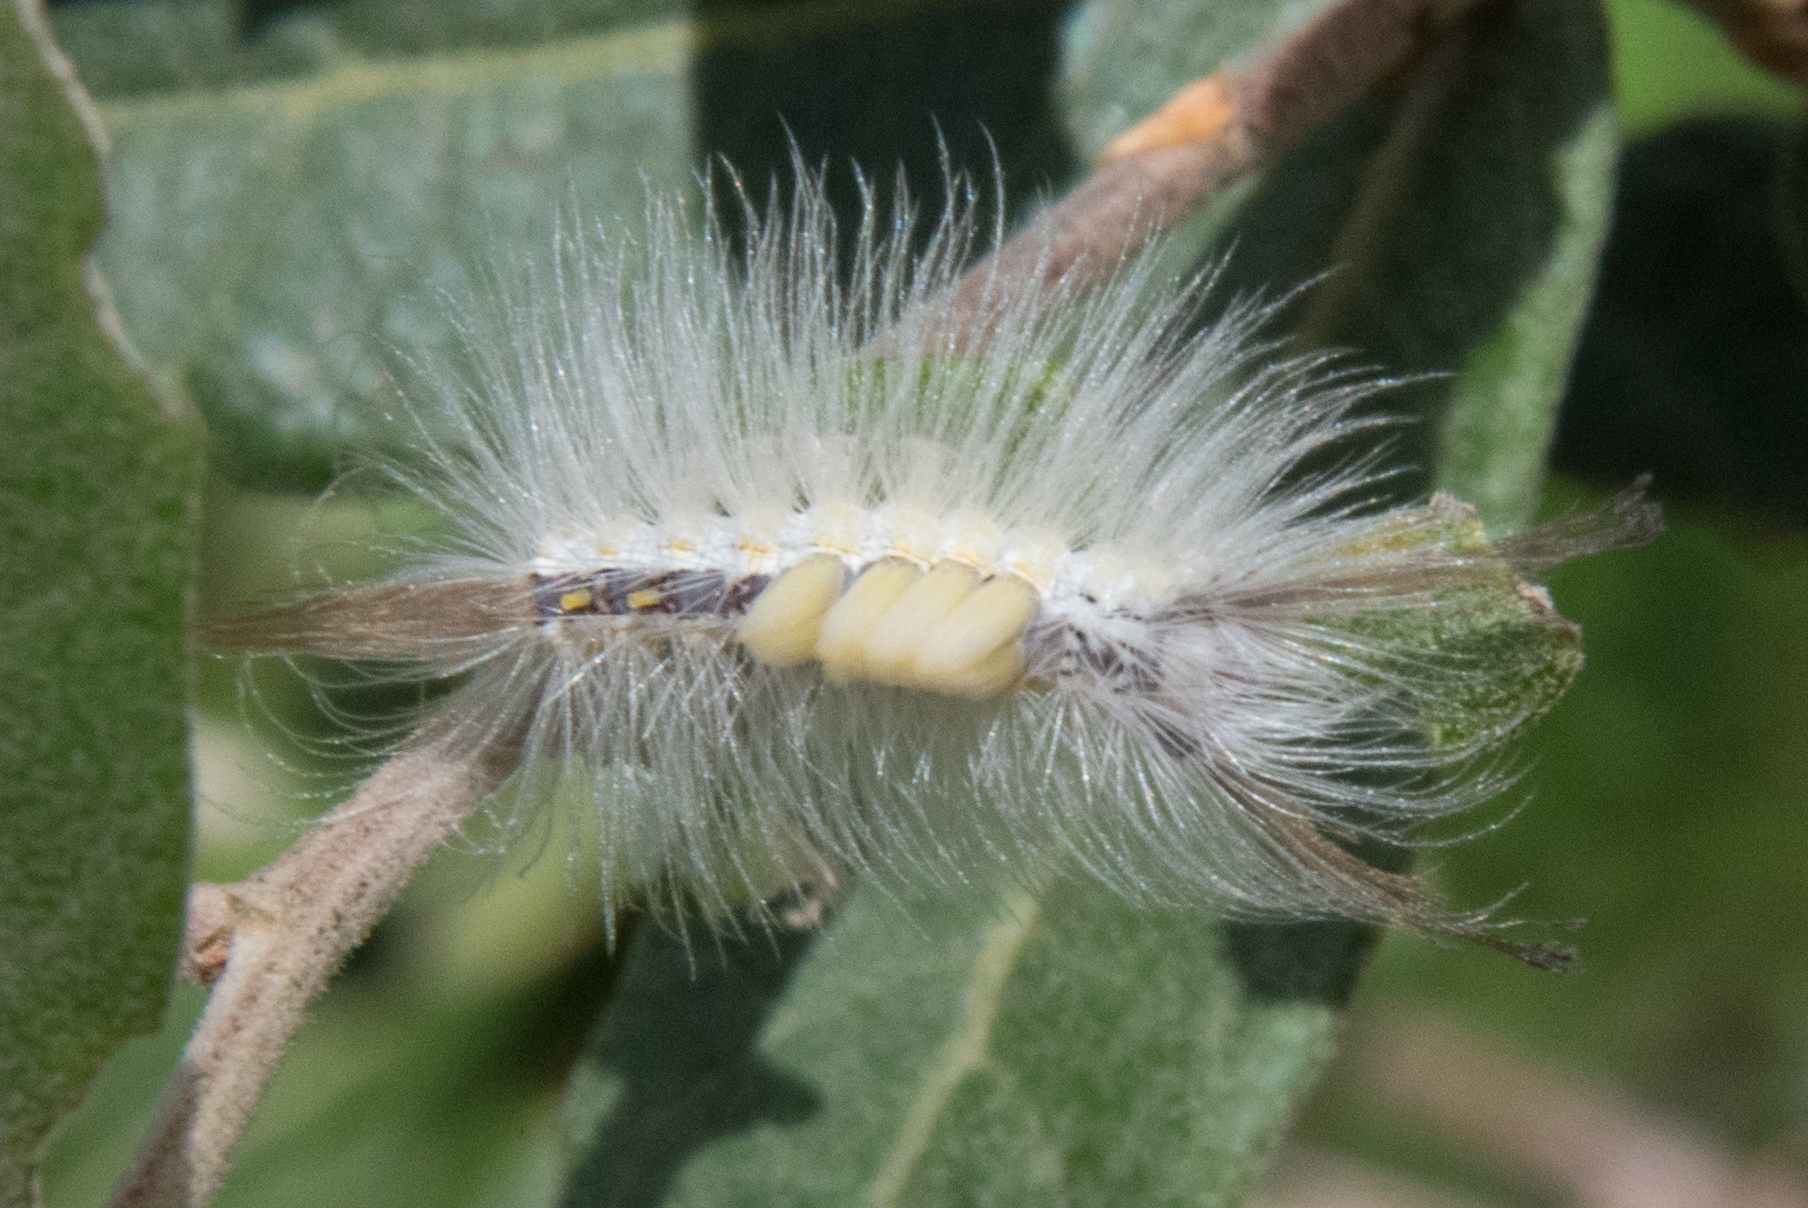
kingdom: Animalia
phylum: Arthropoda
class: Insecta
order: Lepidoptera
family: Erebidae
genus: Orgyia
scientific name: Orgyia falcata
